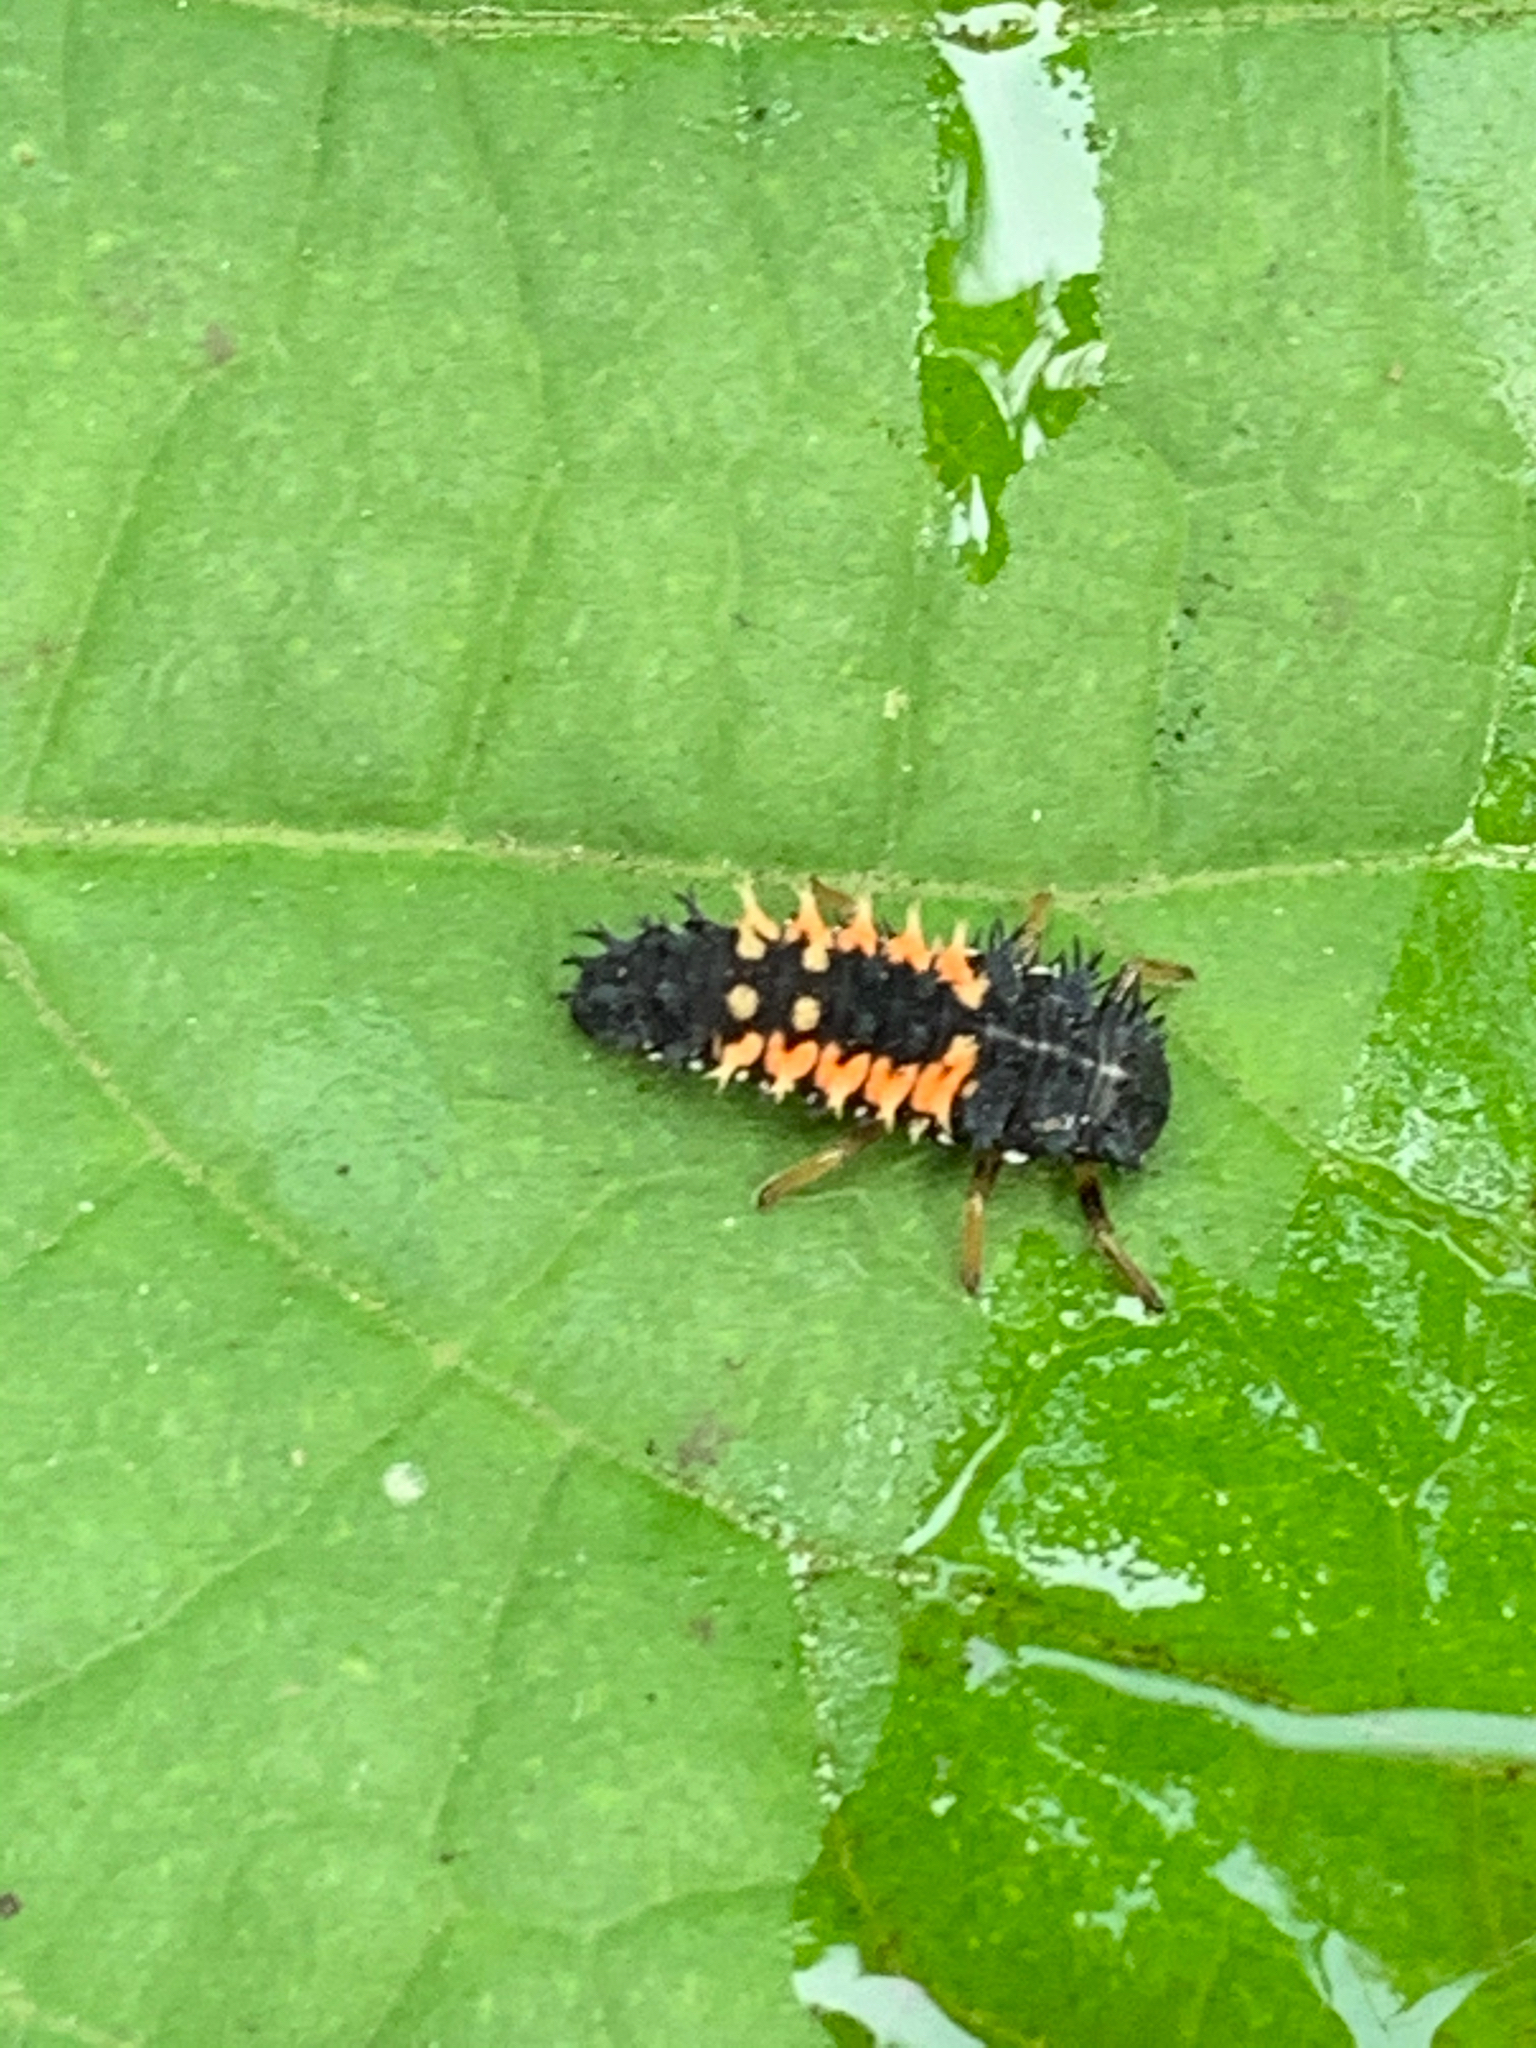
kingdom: Animalia
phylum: Arthropoda
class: Insecta
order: Coleoptera
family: Coccinellidae
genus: Harmonia
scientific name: Harmonia axyridis
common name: Harlequin ladybird
